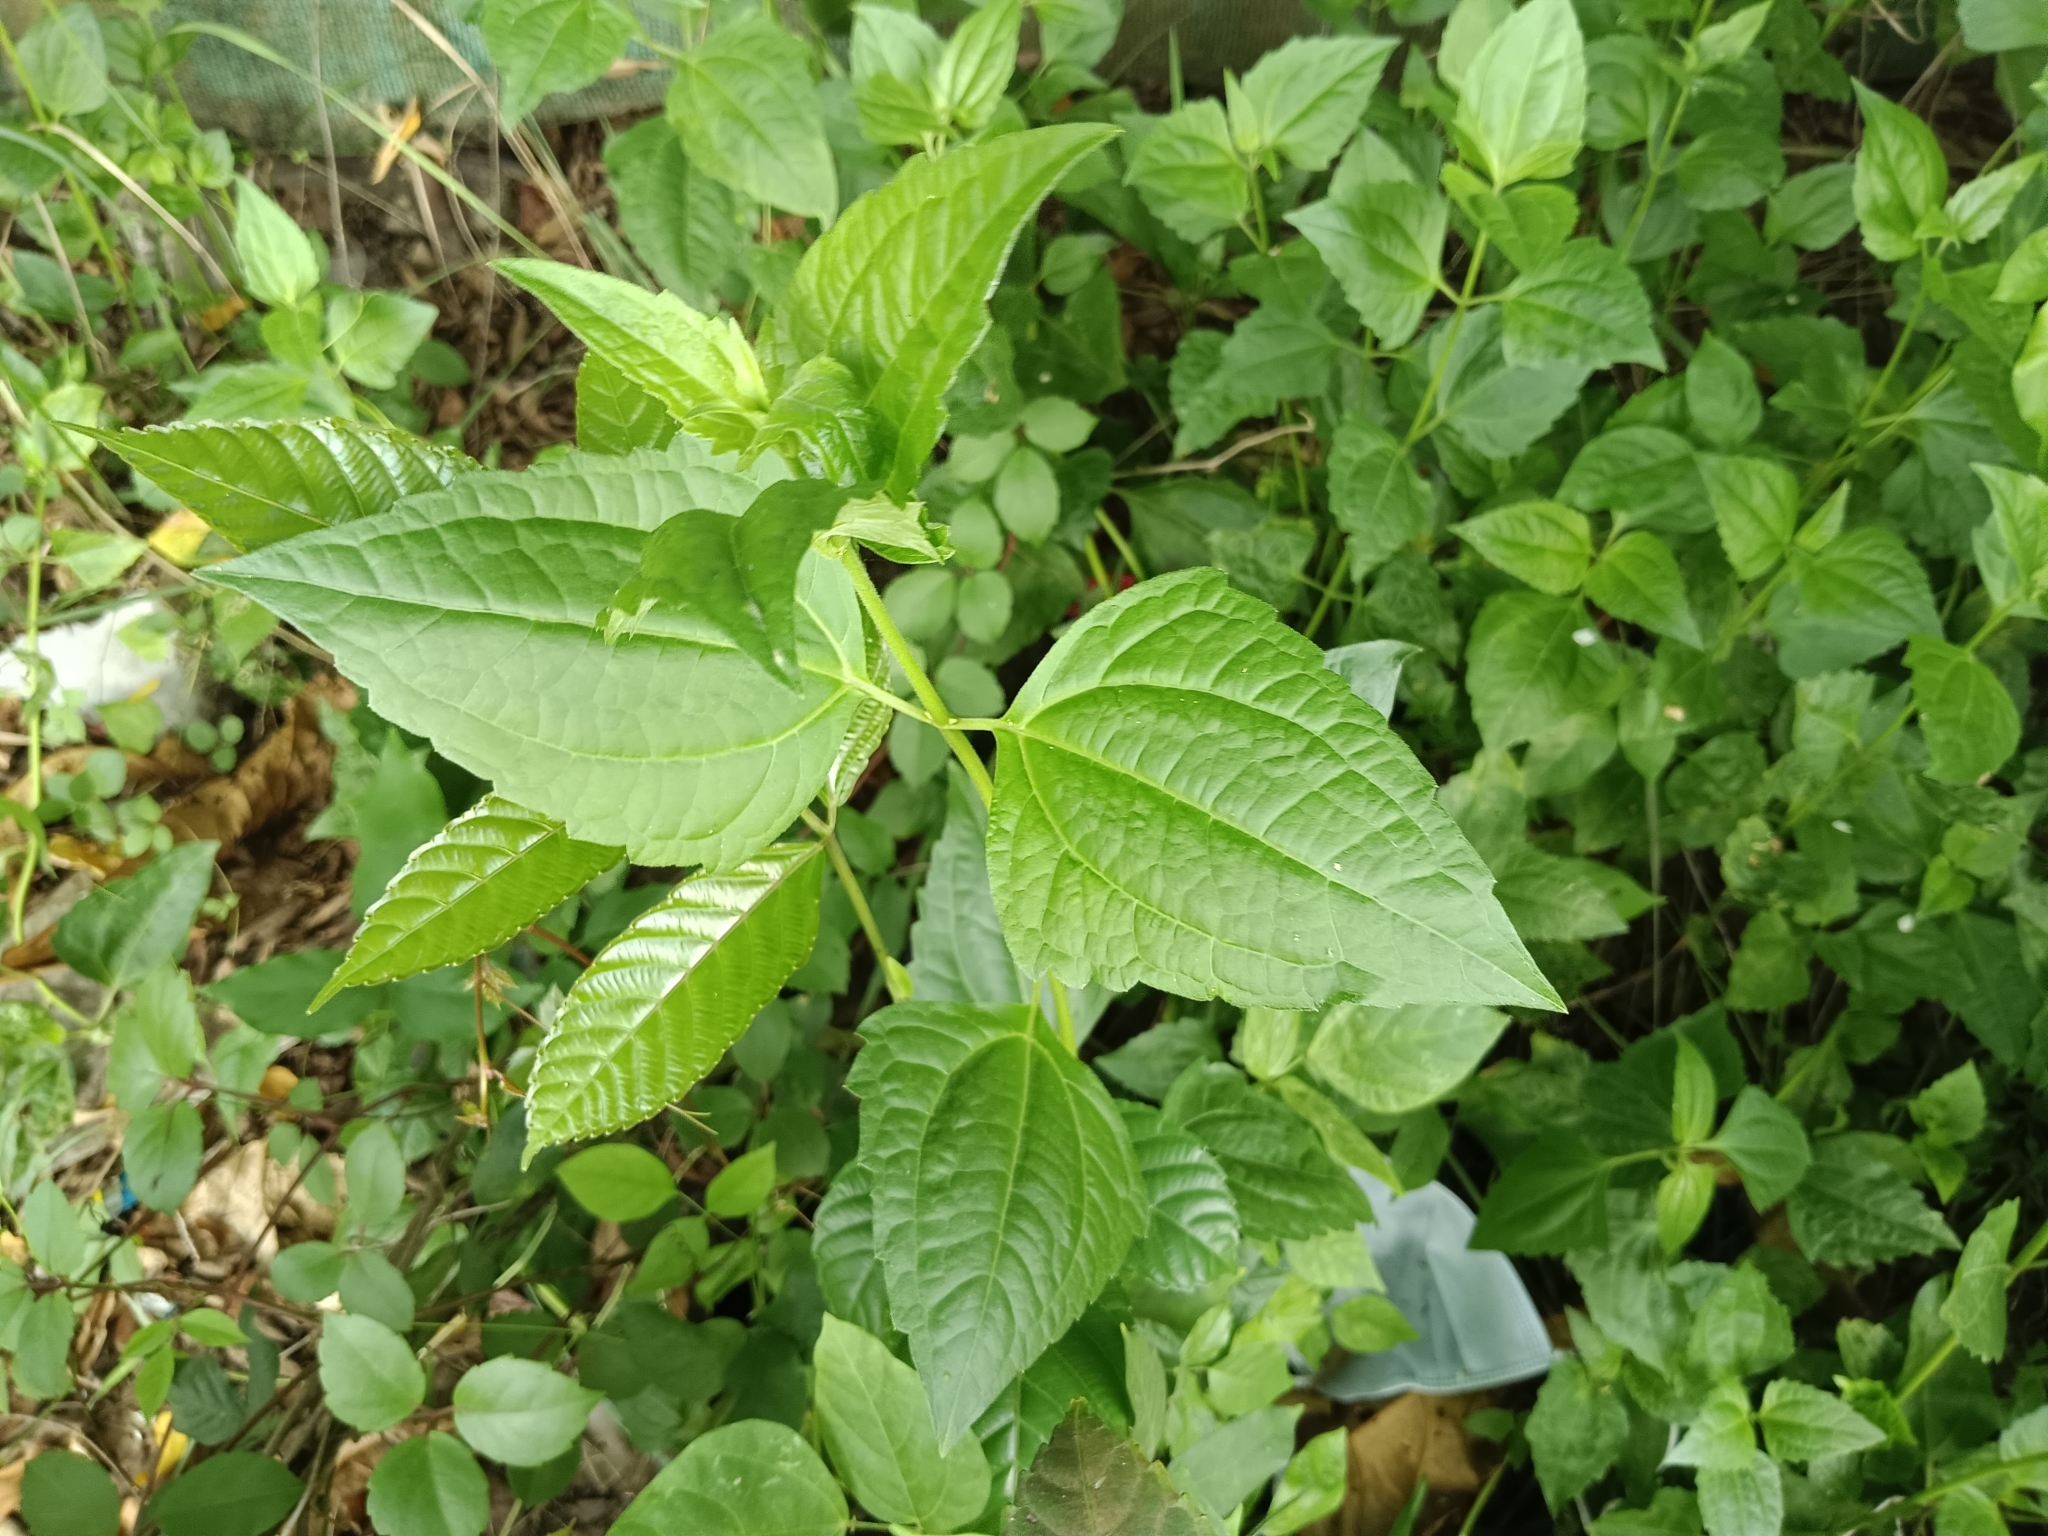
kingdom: Plantae
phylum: Tracheophyta
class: Magnoliopsida
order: Asterales
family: Asteraceae
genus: Chromolaena
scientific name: Chromolaena odorata
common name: Siamweed
